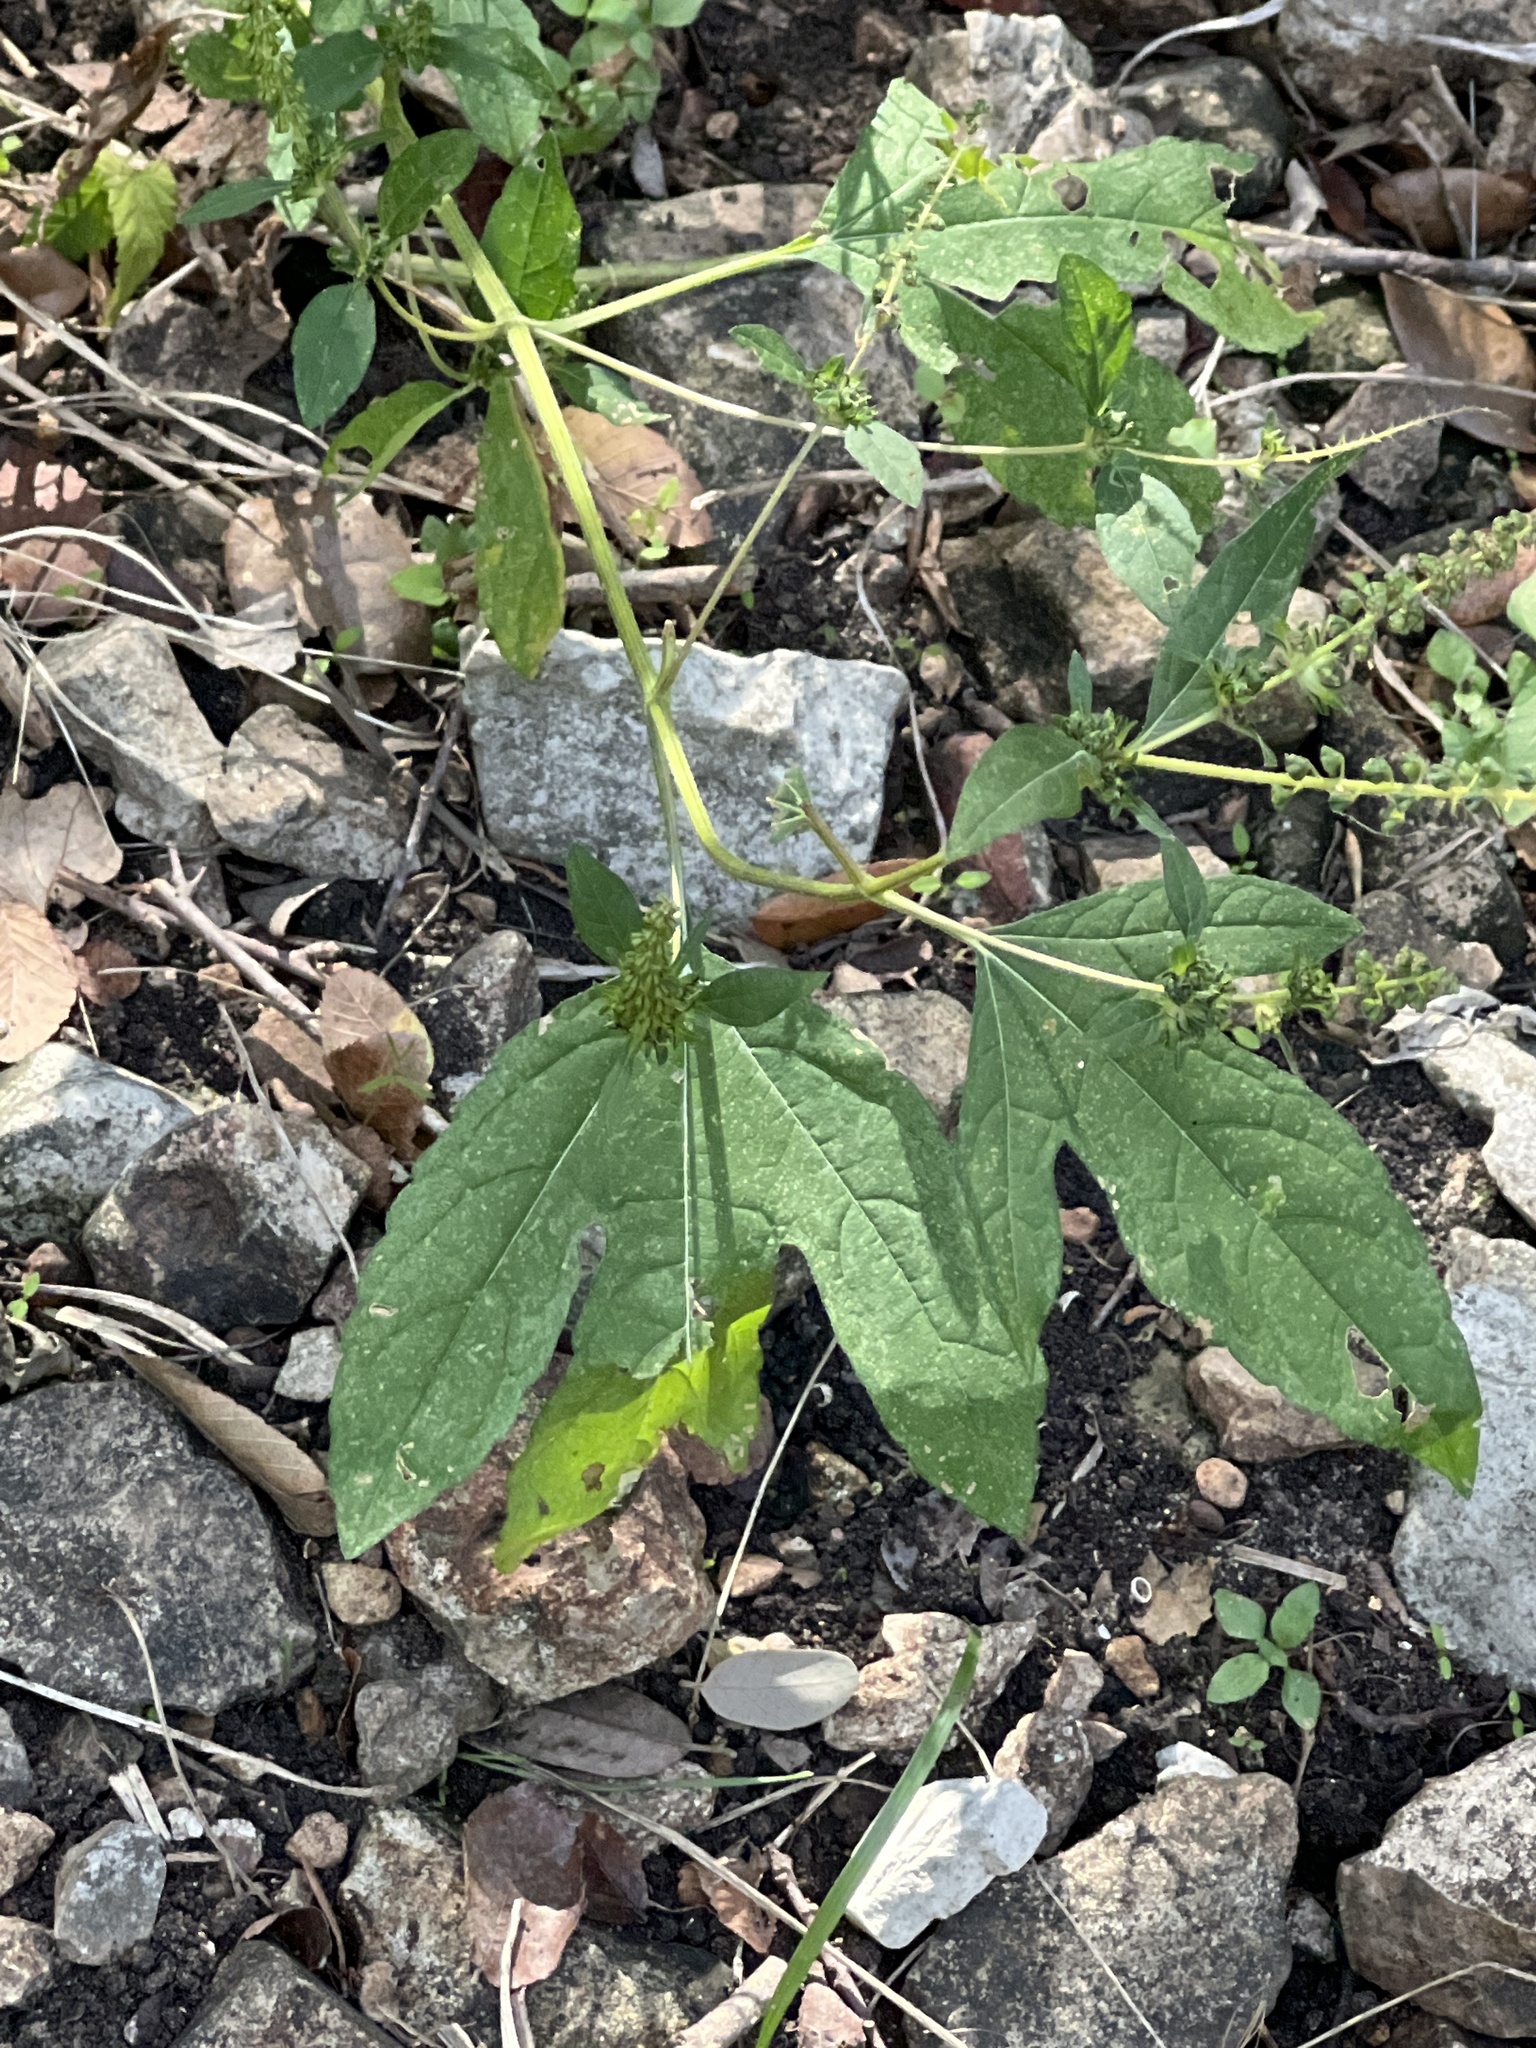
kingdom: Plantae
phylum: Tracheophyta
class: Magnoliopsida
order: Asterales
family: Asteraceae
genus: Ambrosia
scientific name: Ambrosia trifida
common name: Giant ragweed
